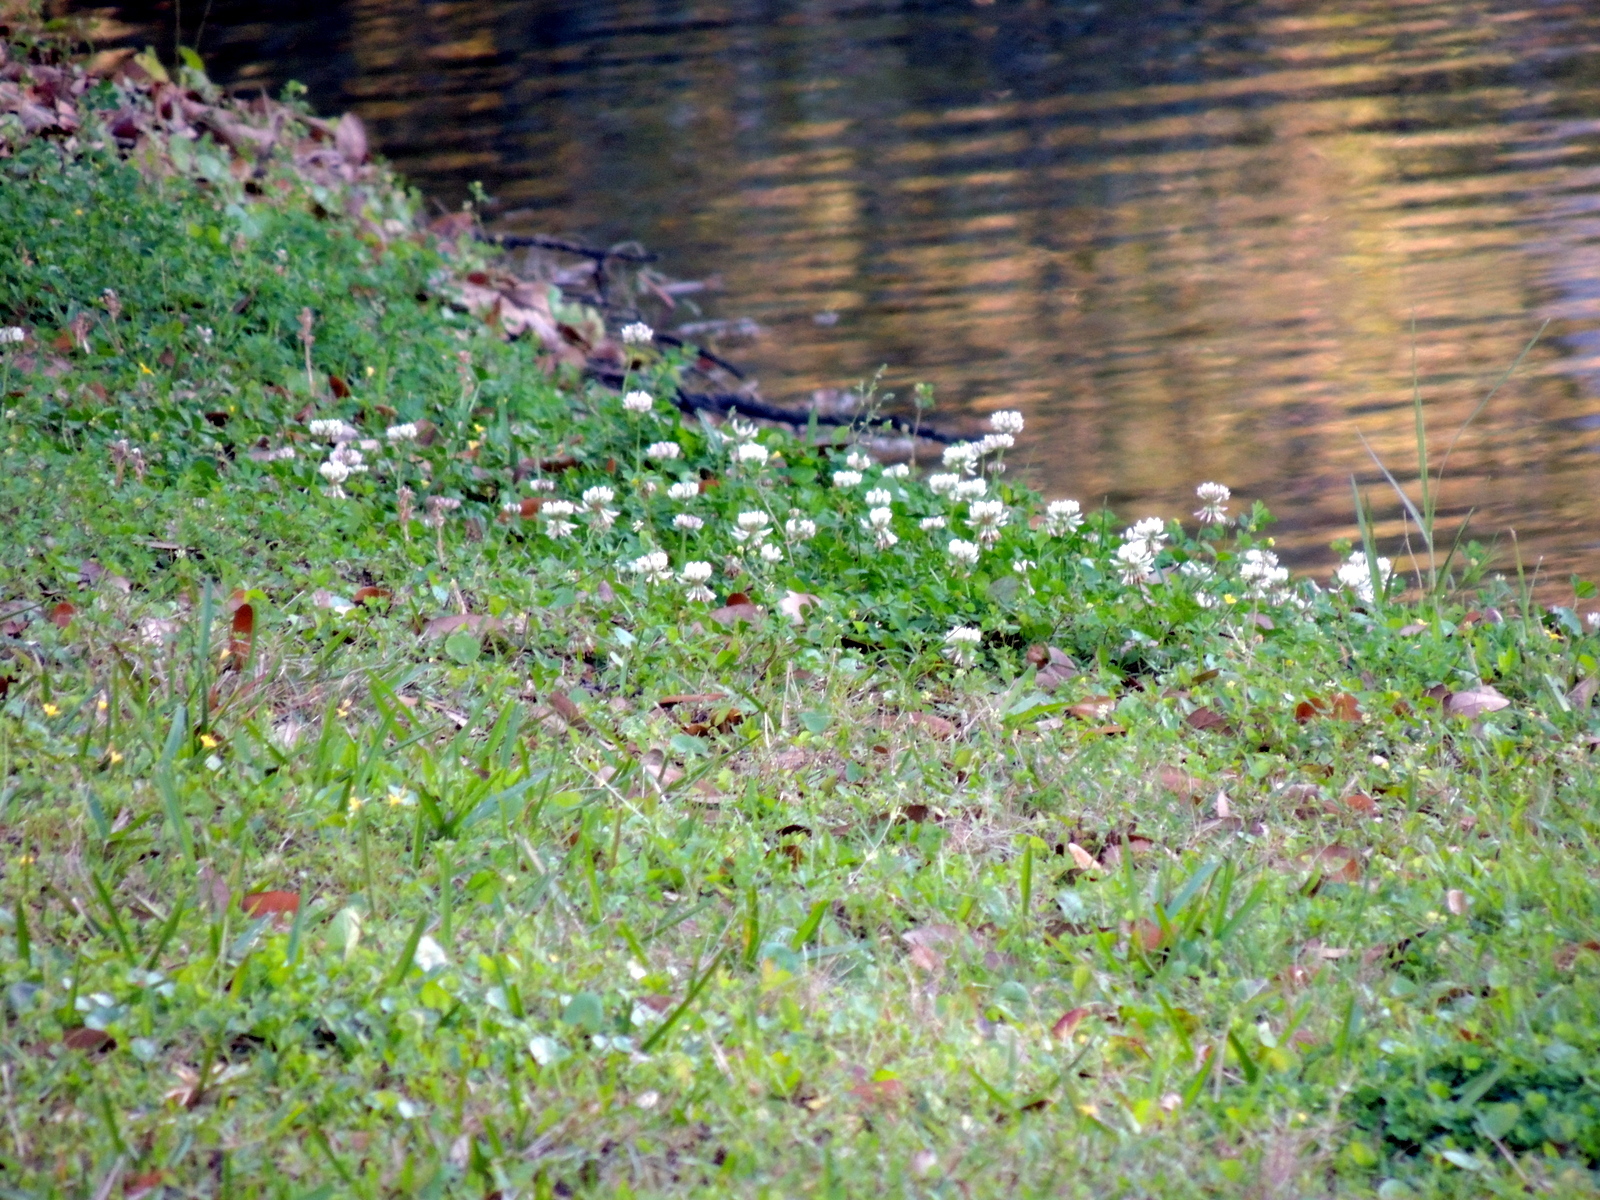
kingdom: Plantae
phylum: Tracheophyta
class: Magnoliopsida
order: Fabales
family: Fabaceae
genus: Trifolium
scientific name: Trifolium repens
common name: White clover
